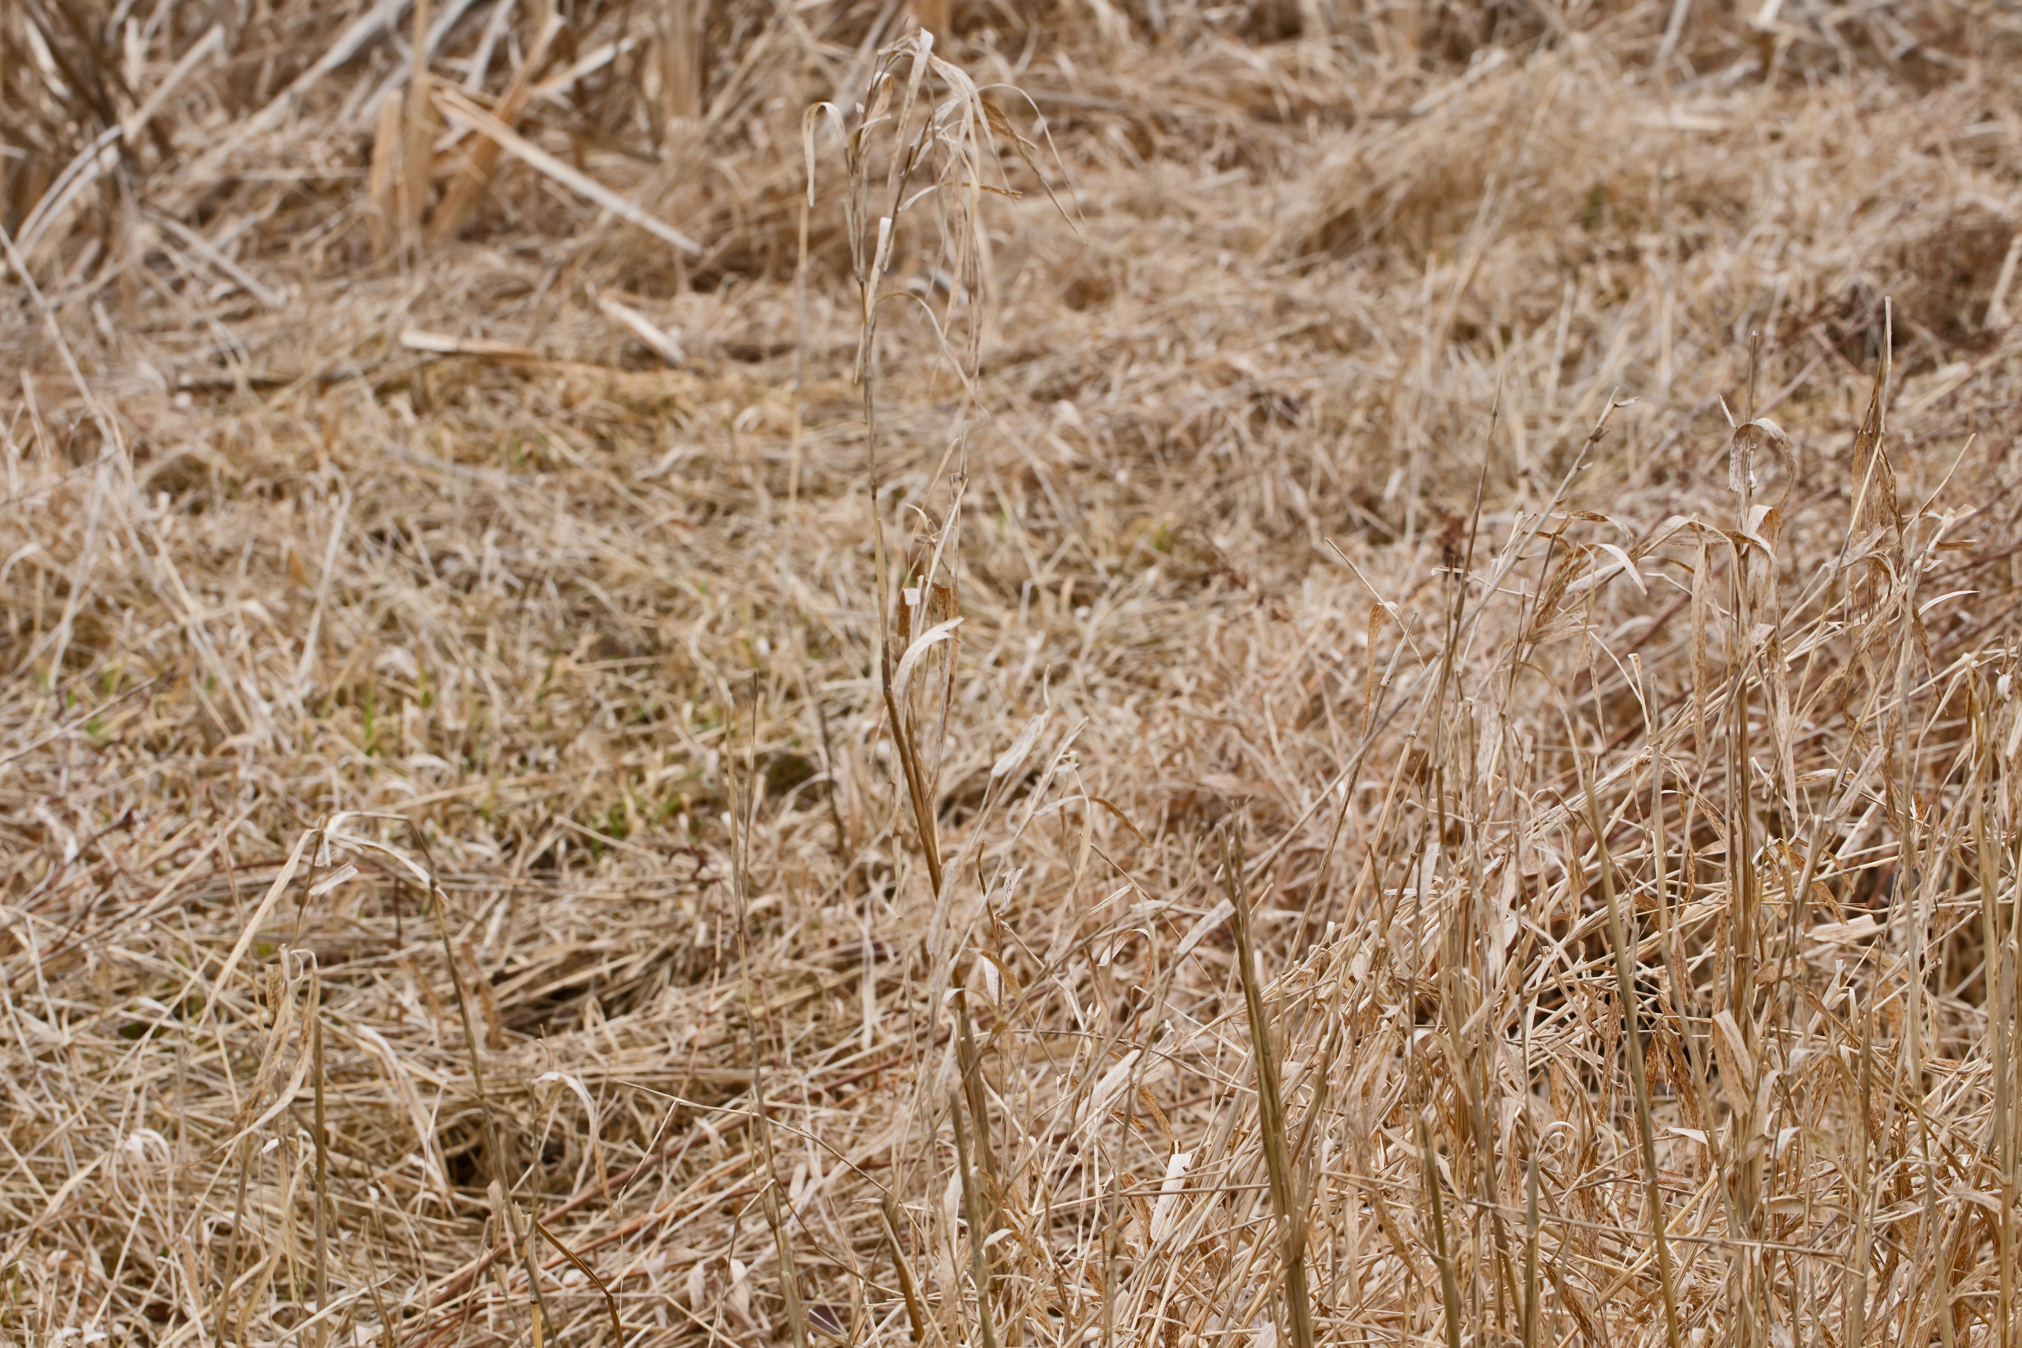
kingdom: Plantae
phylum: Tracheophyta
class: Liliopsida
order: Poales
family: Poaceae
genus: Phalaris
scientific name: Phalaris arundinacea
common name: Reed canary-grass
